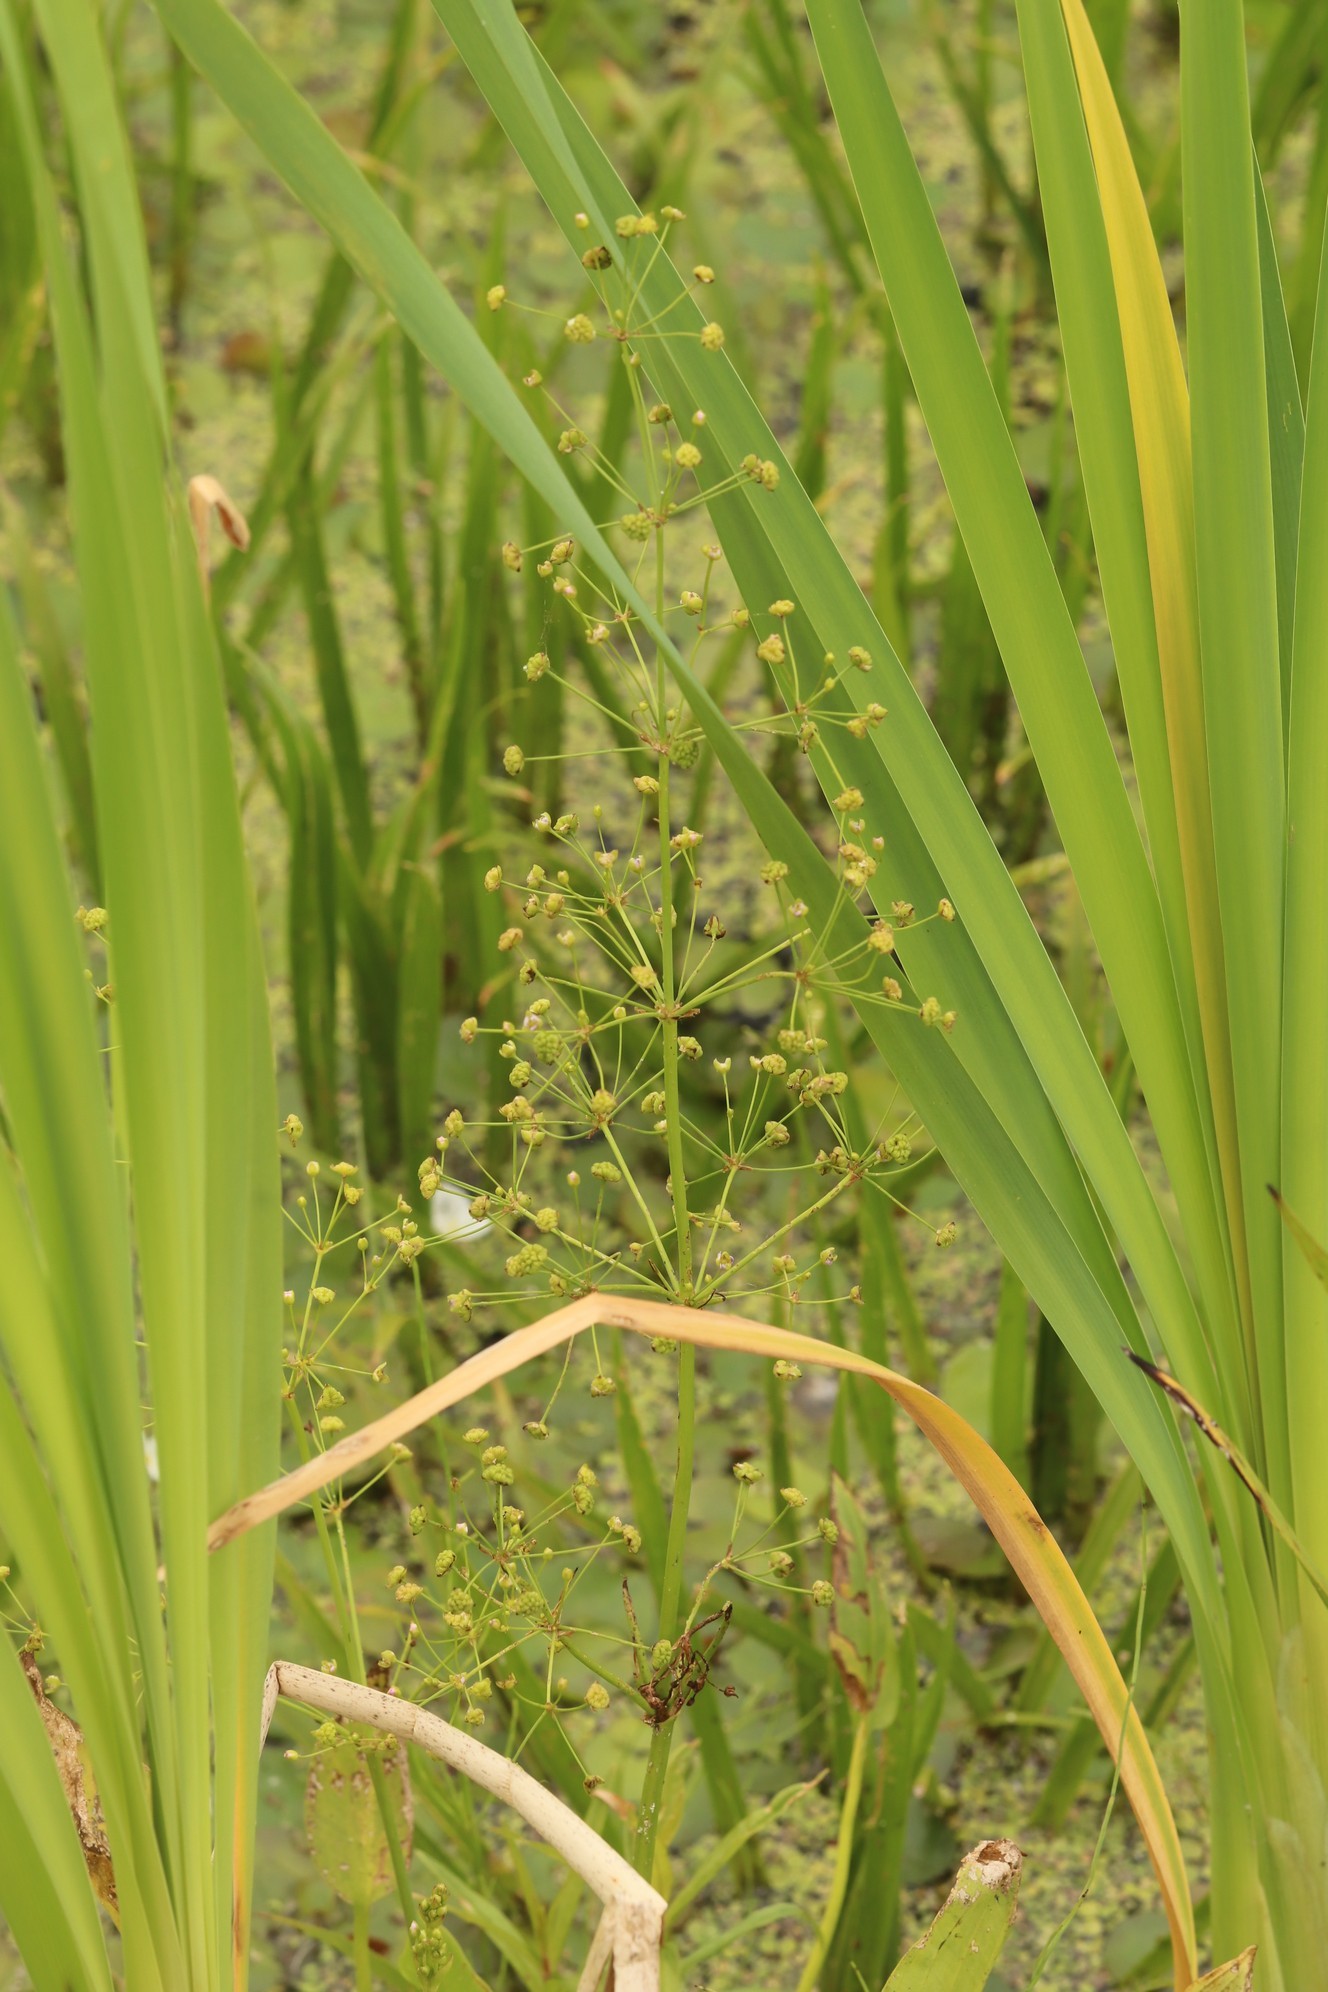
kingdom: Plantae
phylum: Tracheophyta
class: Liliopsida
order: Alismatales
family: Alismataceae
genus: Alisma
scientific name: Alisma plantago-aquatica
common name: Water-plantain
